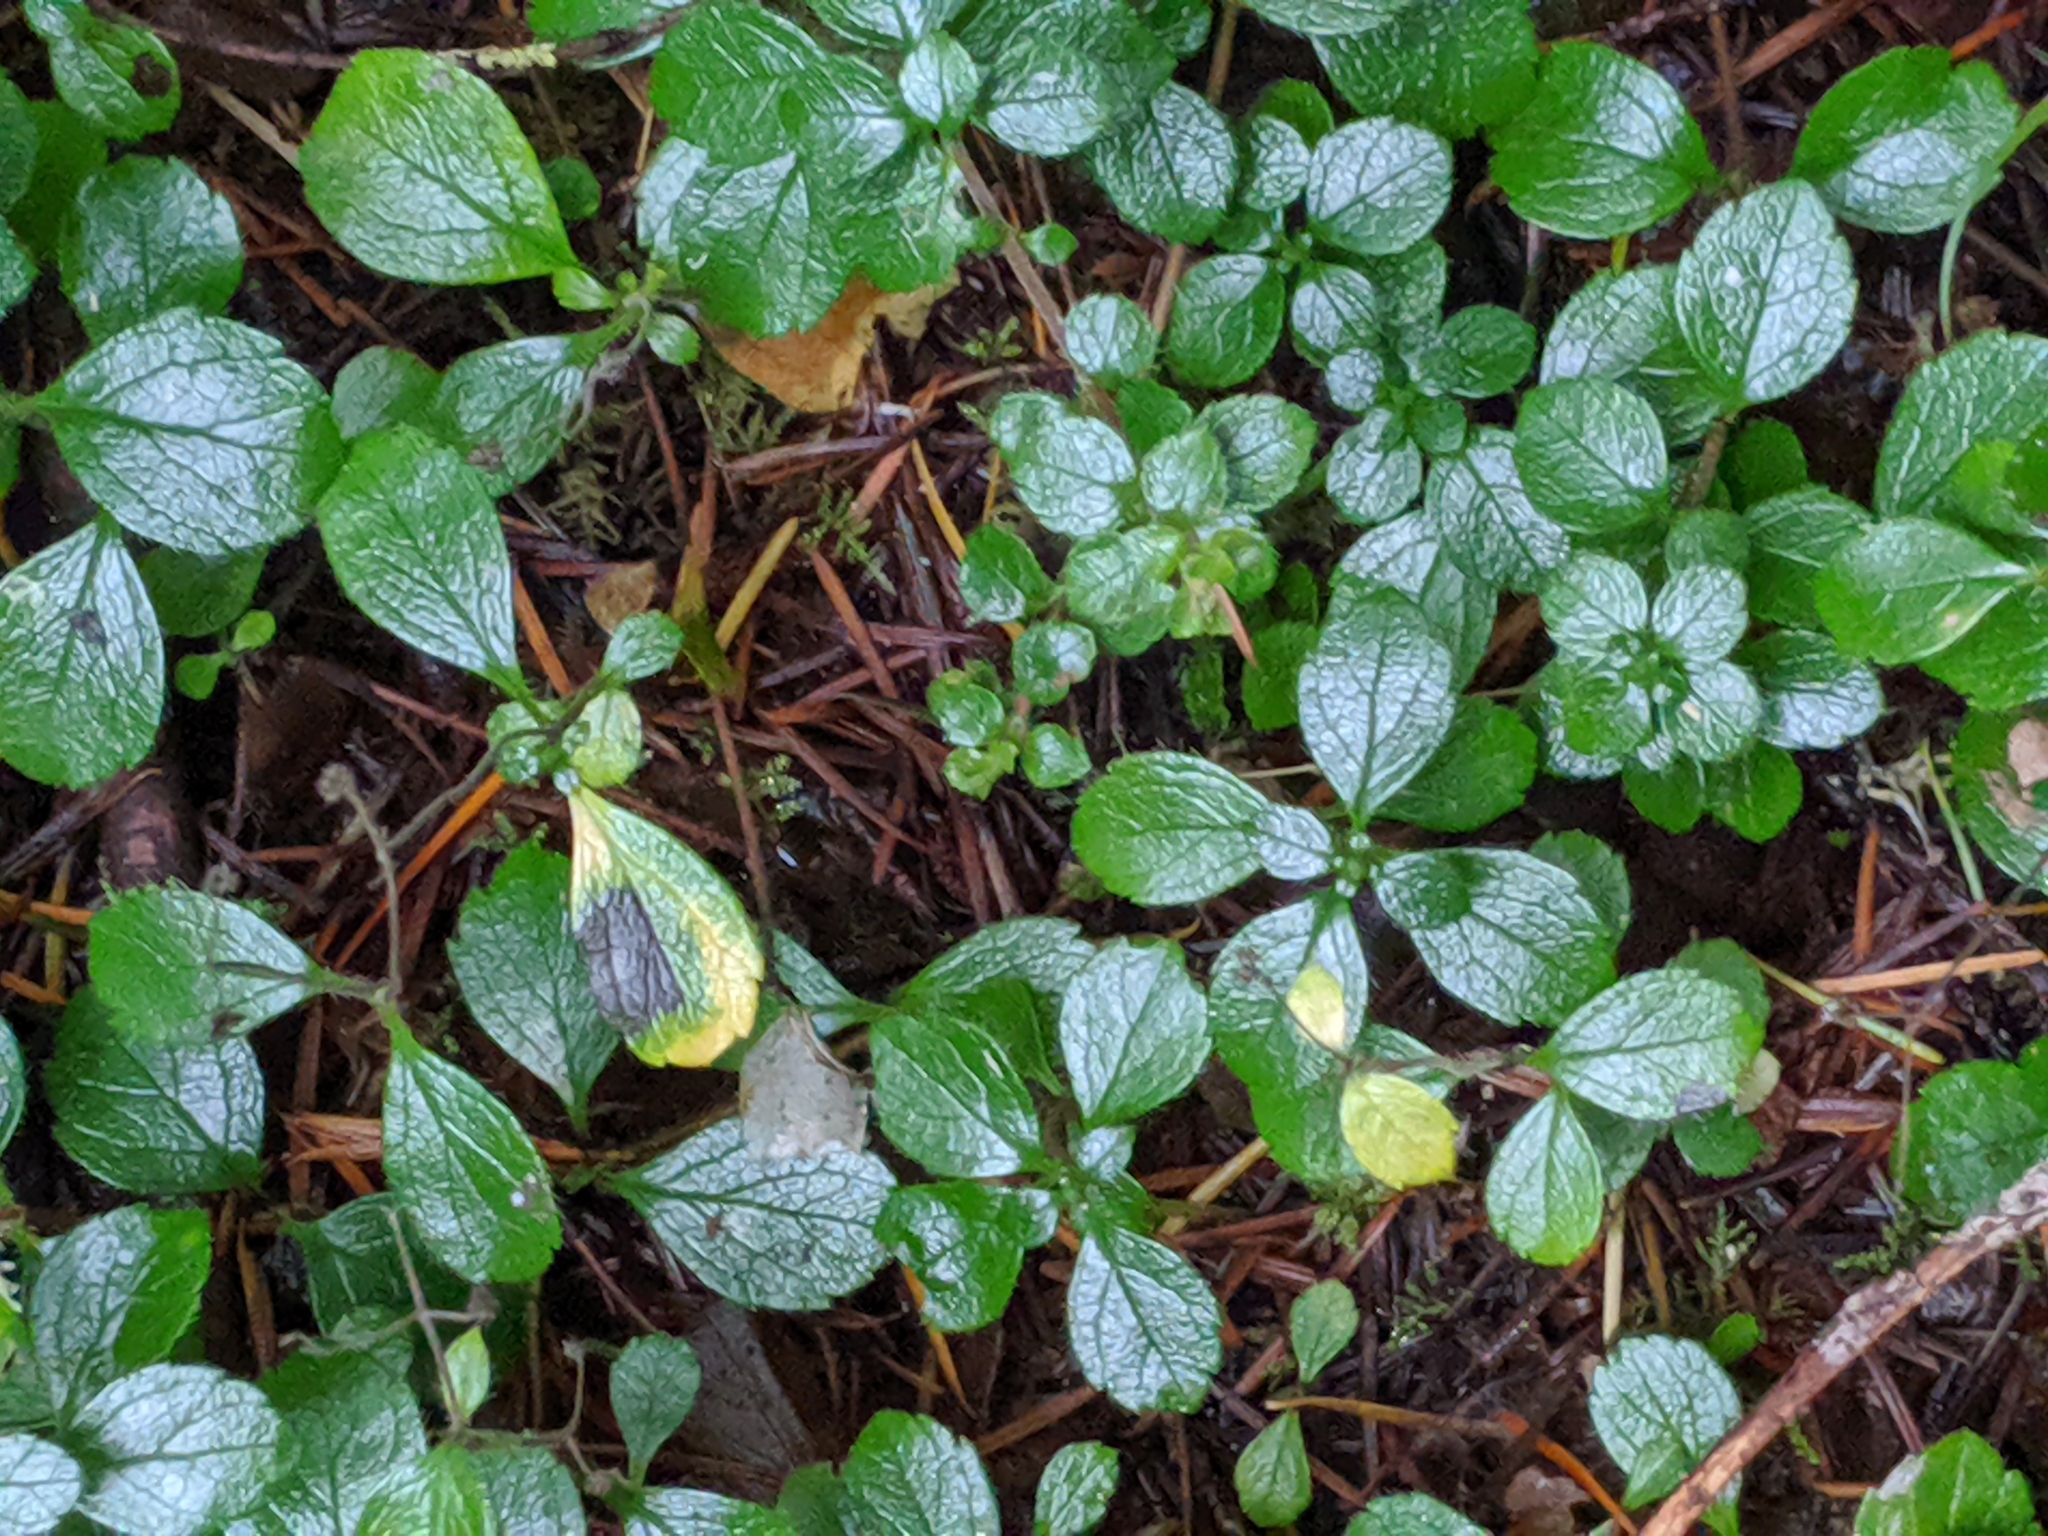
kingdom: Plantae
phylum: Tracheophyta
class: Magnoliopsida
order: Dipsacales
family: Caprifoliaceae
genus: Linnaea
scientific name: Linnaea borealis
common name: Twinflower
